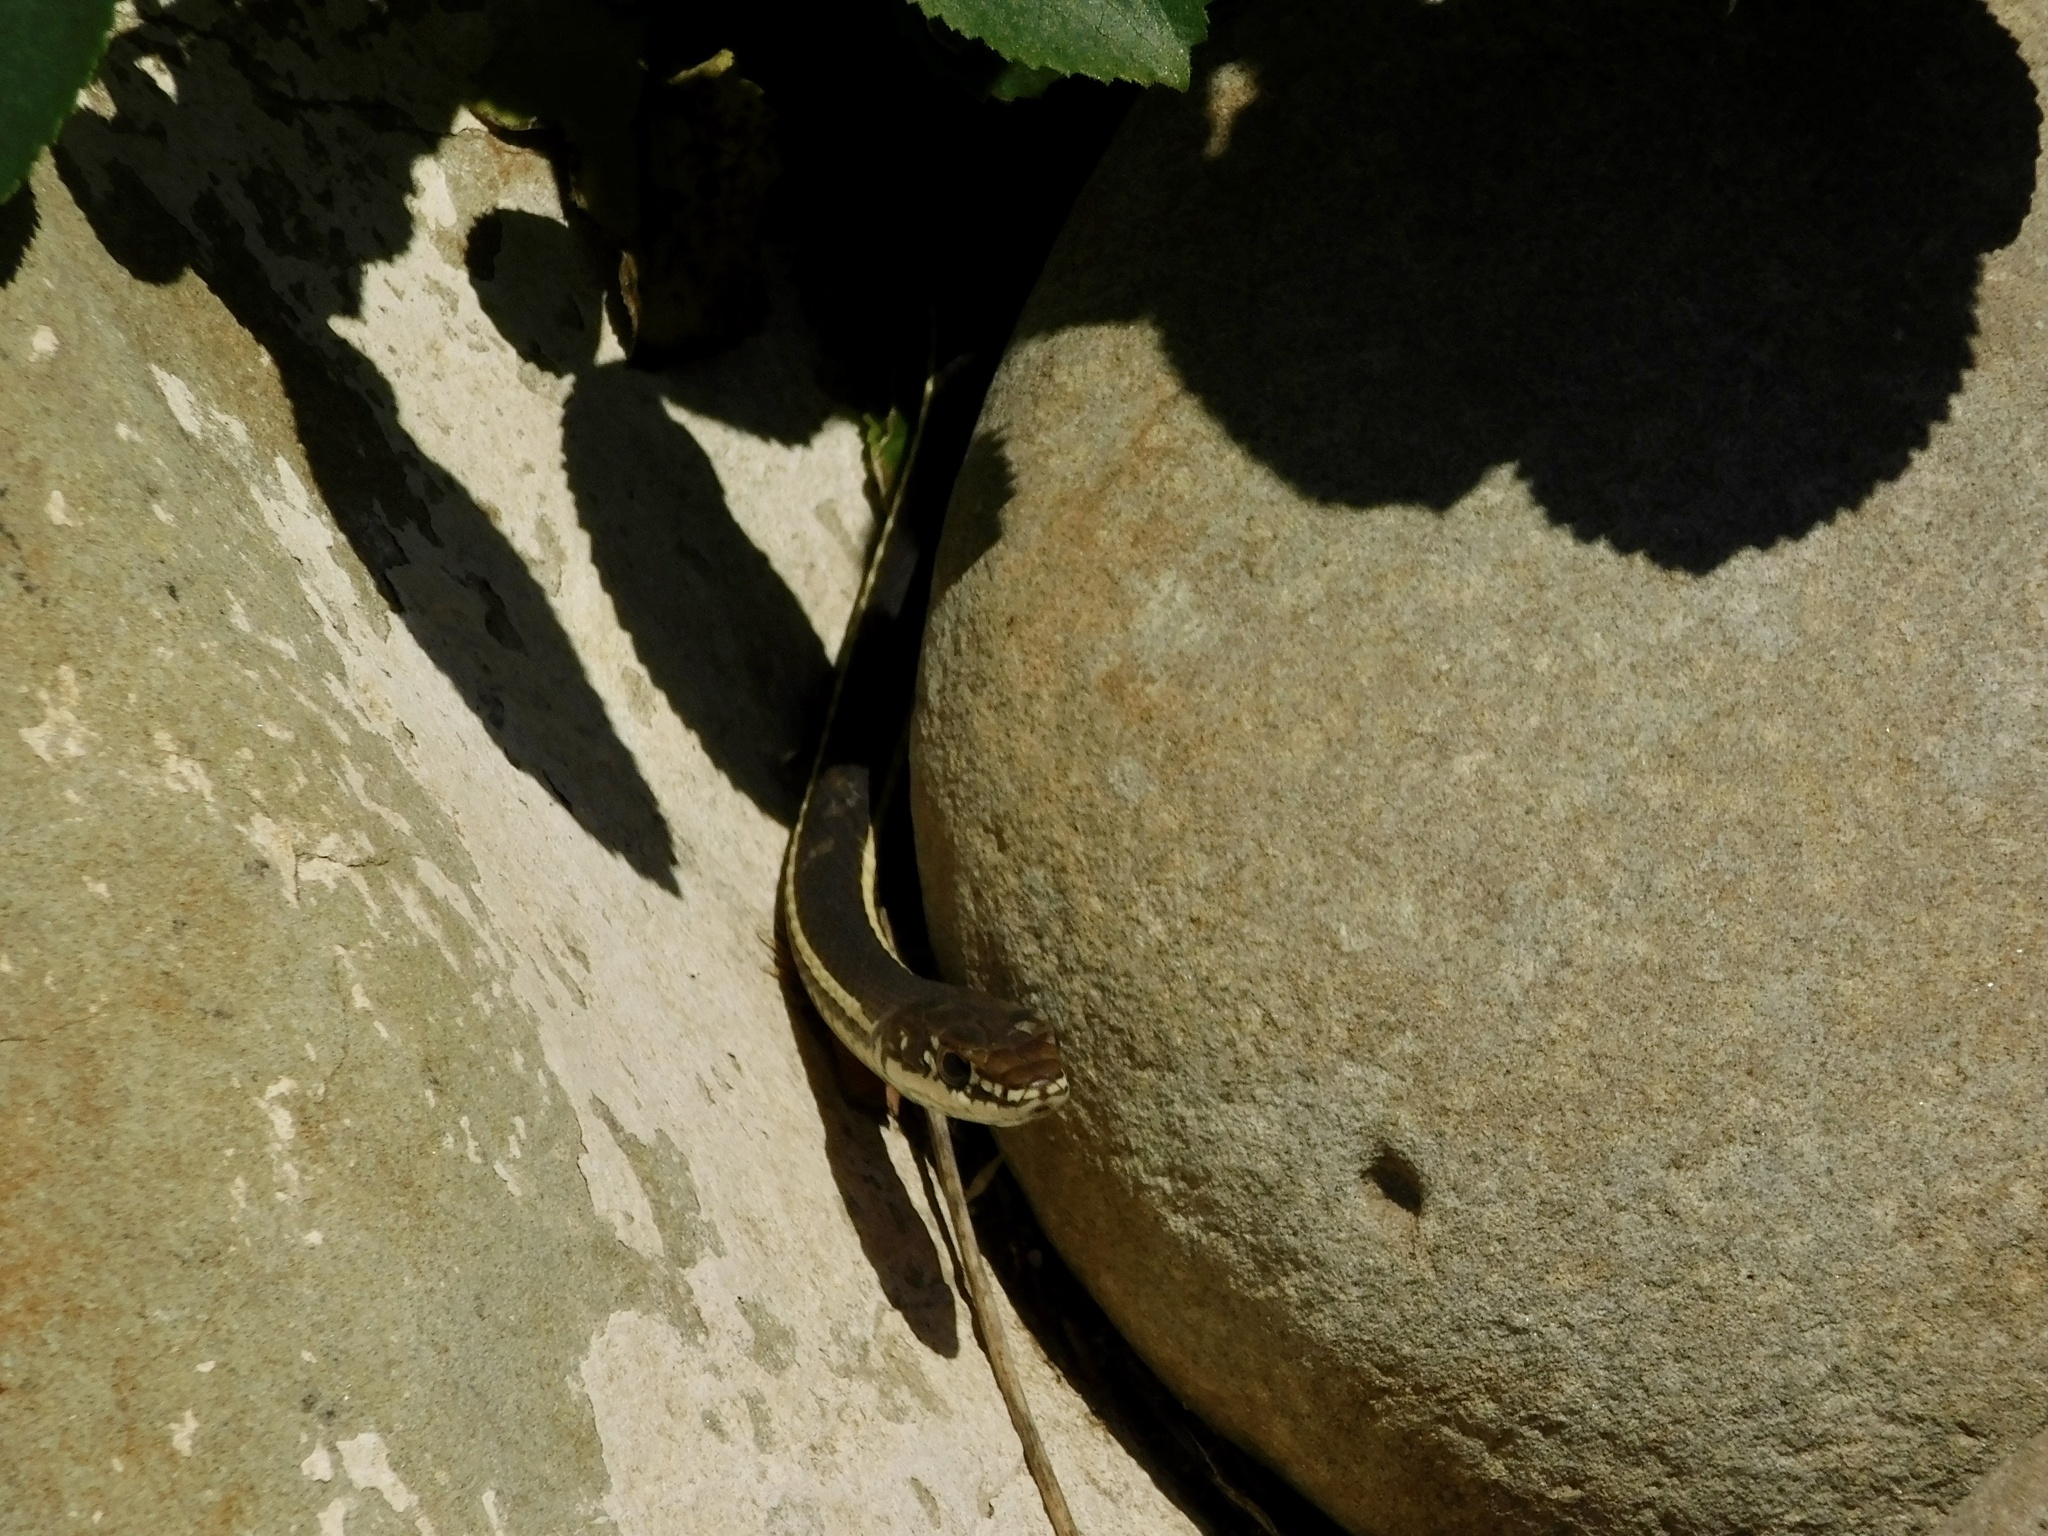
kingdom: Animalia
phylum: Chordata
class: Squamata
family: Colubridae
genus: Masticophis
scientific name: Masticophis lateralis
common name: Striped racer
